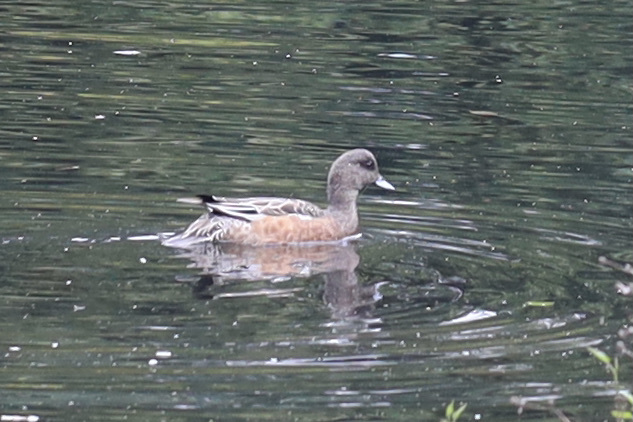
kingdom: Animalia
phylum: Chordata
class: Aves
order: Anseriformes
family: Anatidae
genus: Mareca
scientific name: Mareca americana
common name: American wigeon
